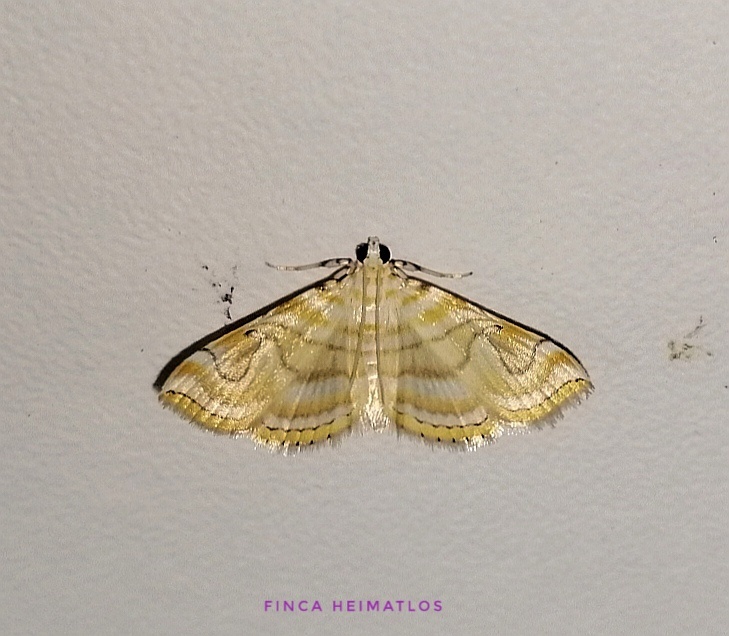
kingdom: Animalia
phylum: Arthropoda
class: Insecta
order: Lepidoptera
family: Pyralidae
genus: Neurophyseta
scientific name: Neurophyseta completalis
